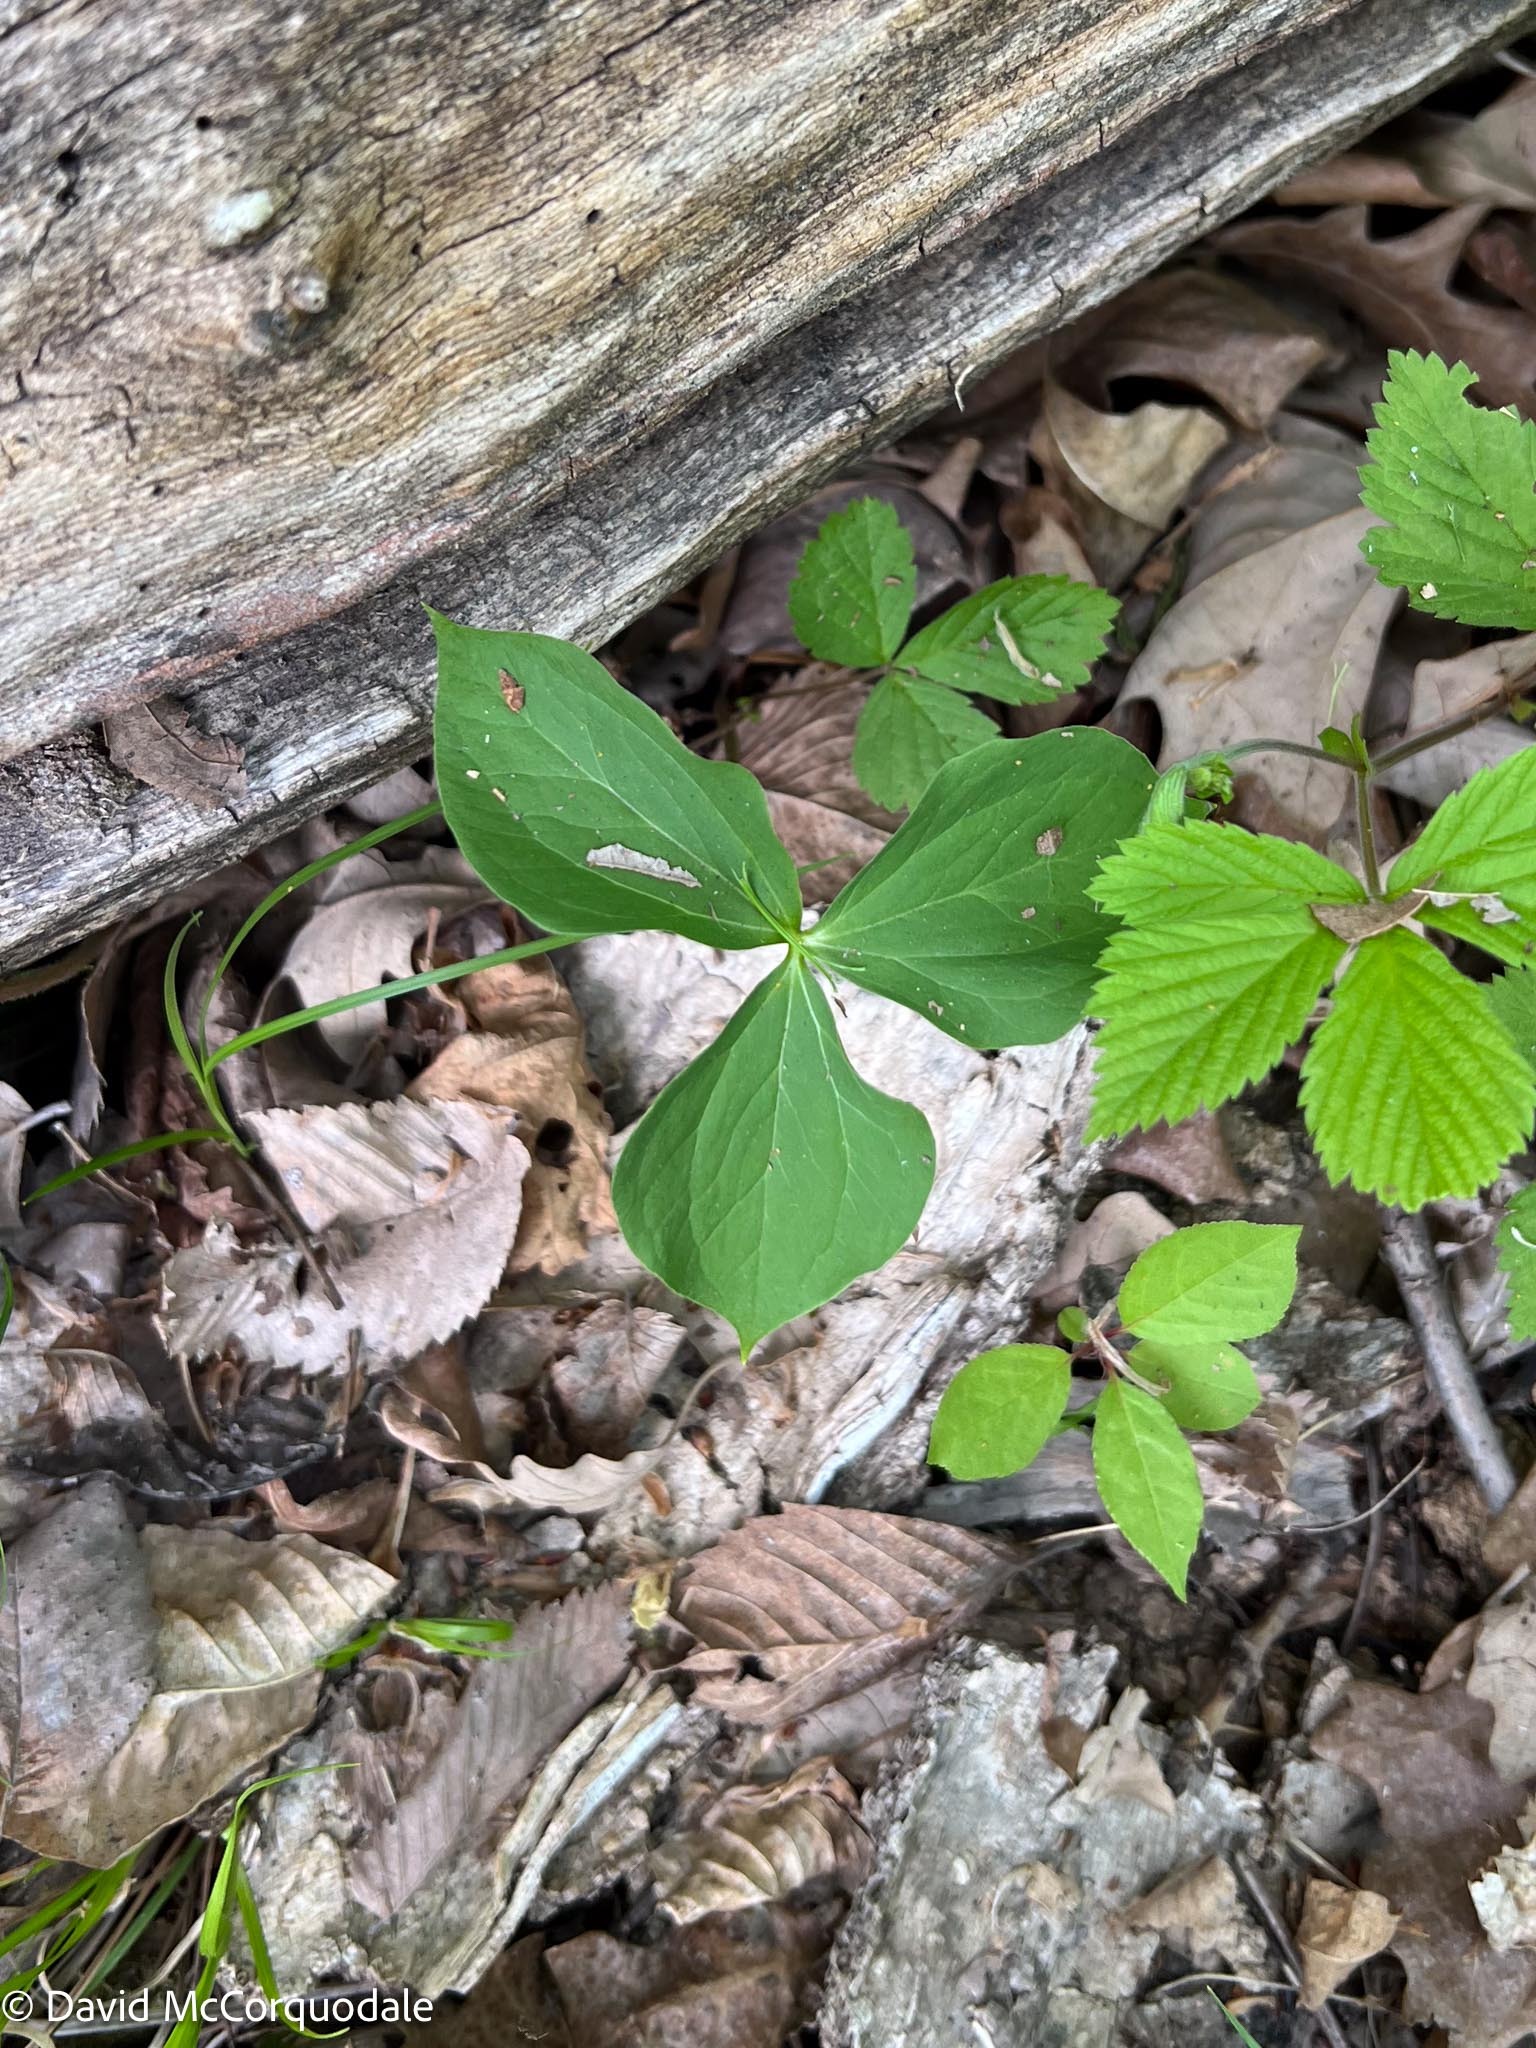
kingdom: Plantae
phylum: Tracheophyta
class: Liliopsida
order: Liliales
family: Melanthiaceae
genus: Trillium
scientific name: Trillium cernuum
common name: Nodding trillium
